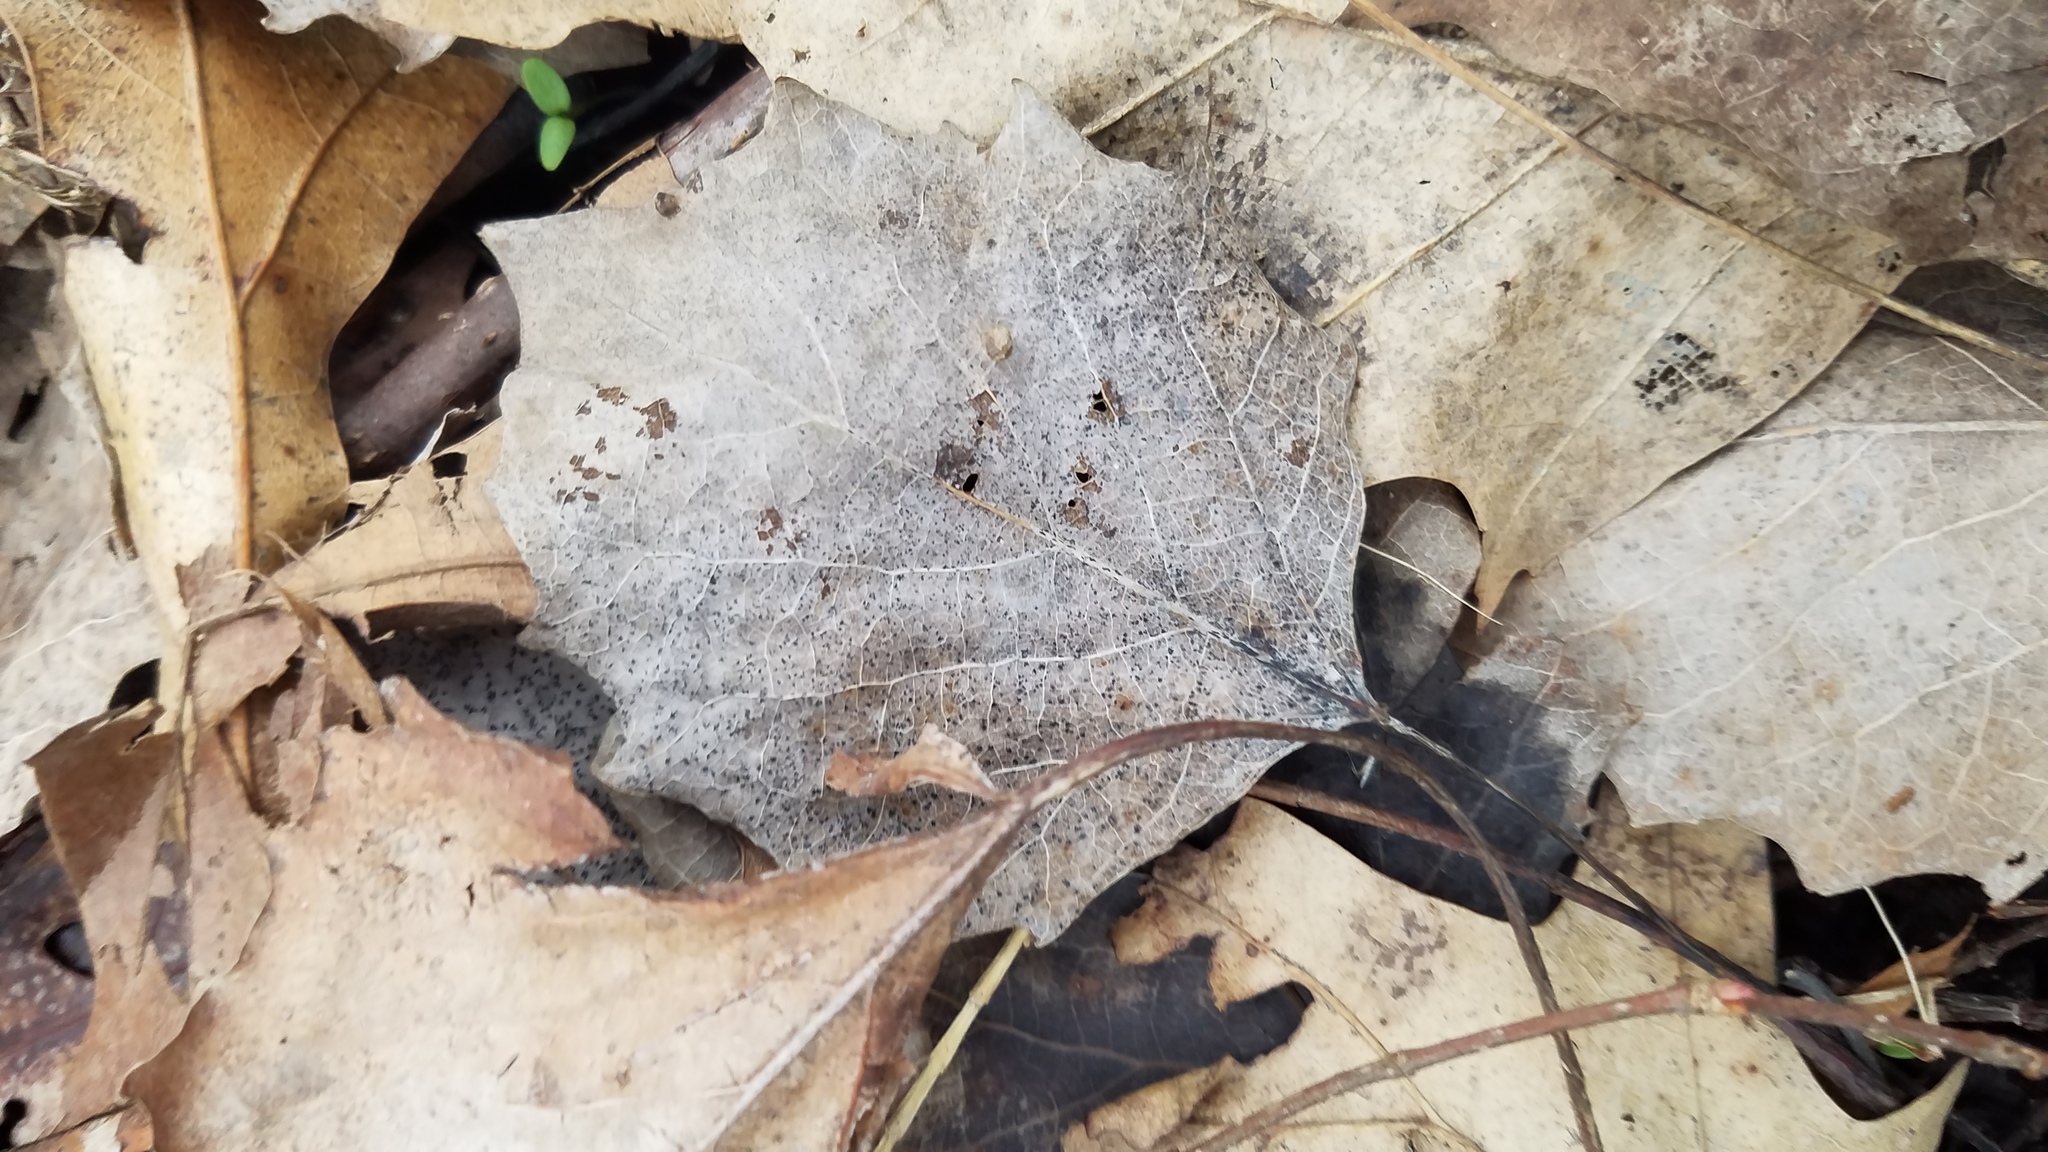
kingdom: Plantae
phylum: Tracheophyta
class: Magnoliopsida
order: Malpighiales
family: Salicaceae
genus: Populus
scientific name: Populus grandidentata
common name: Bigtooth aspen
